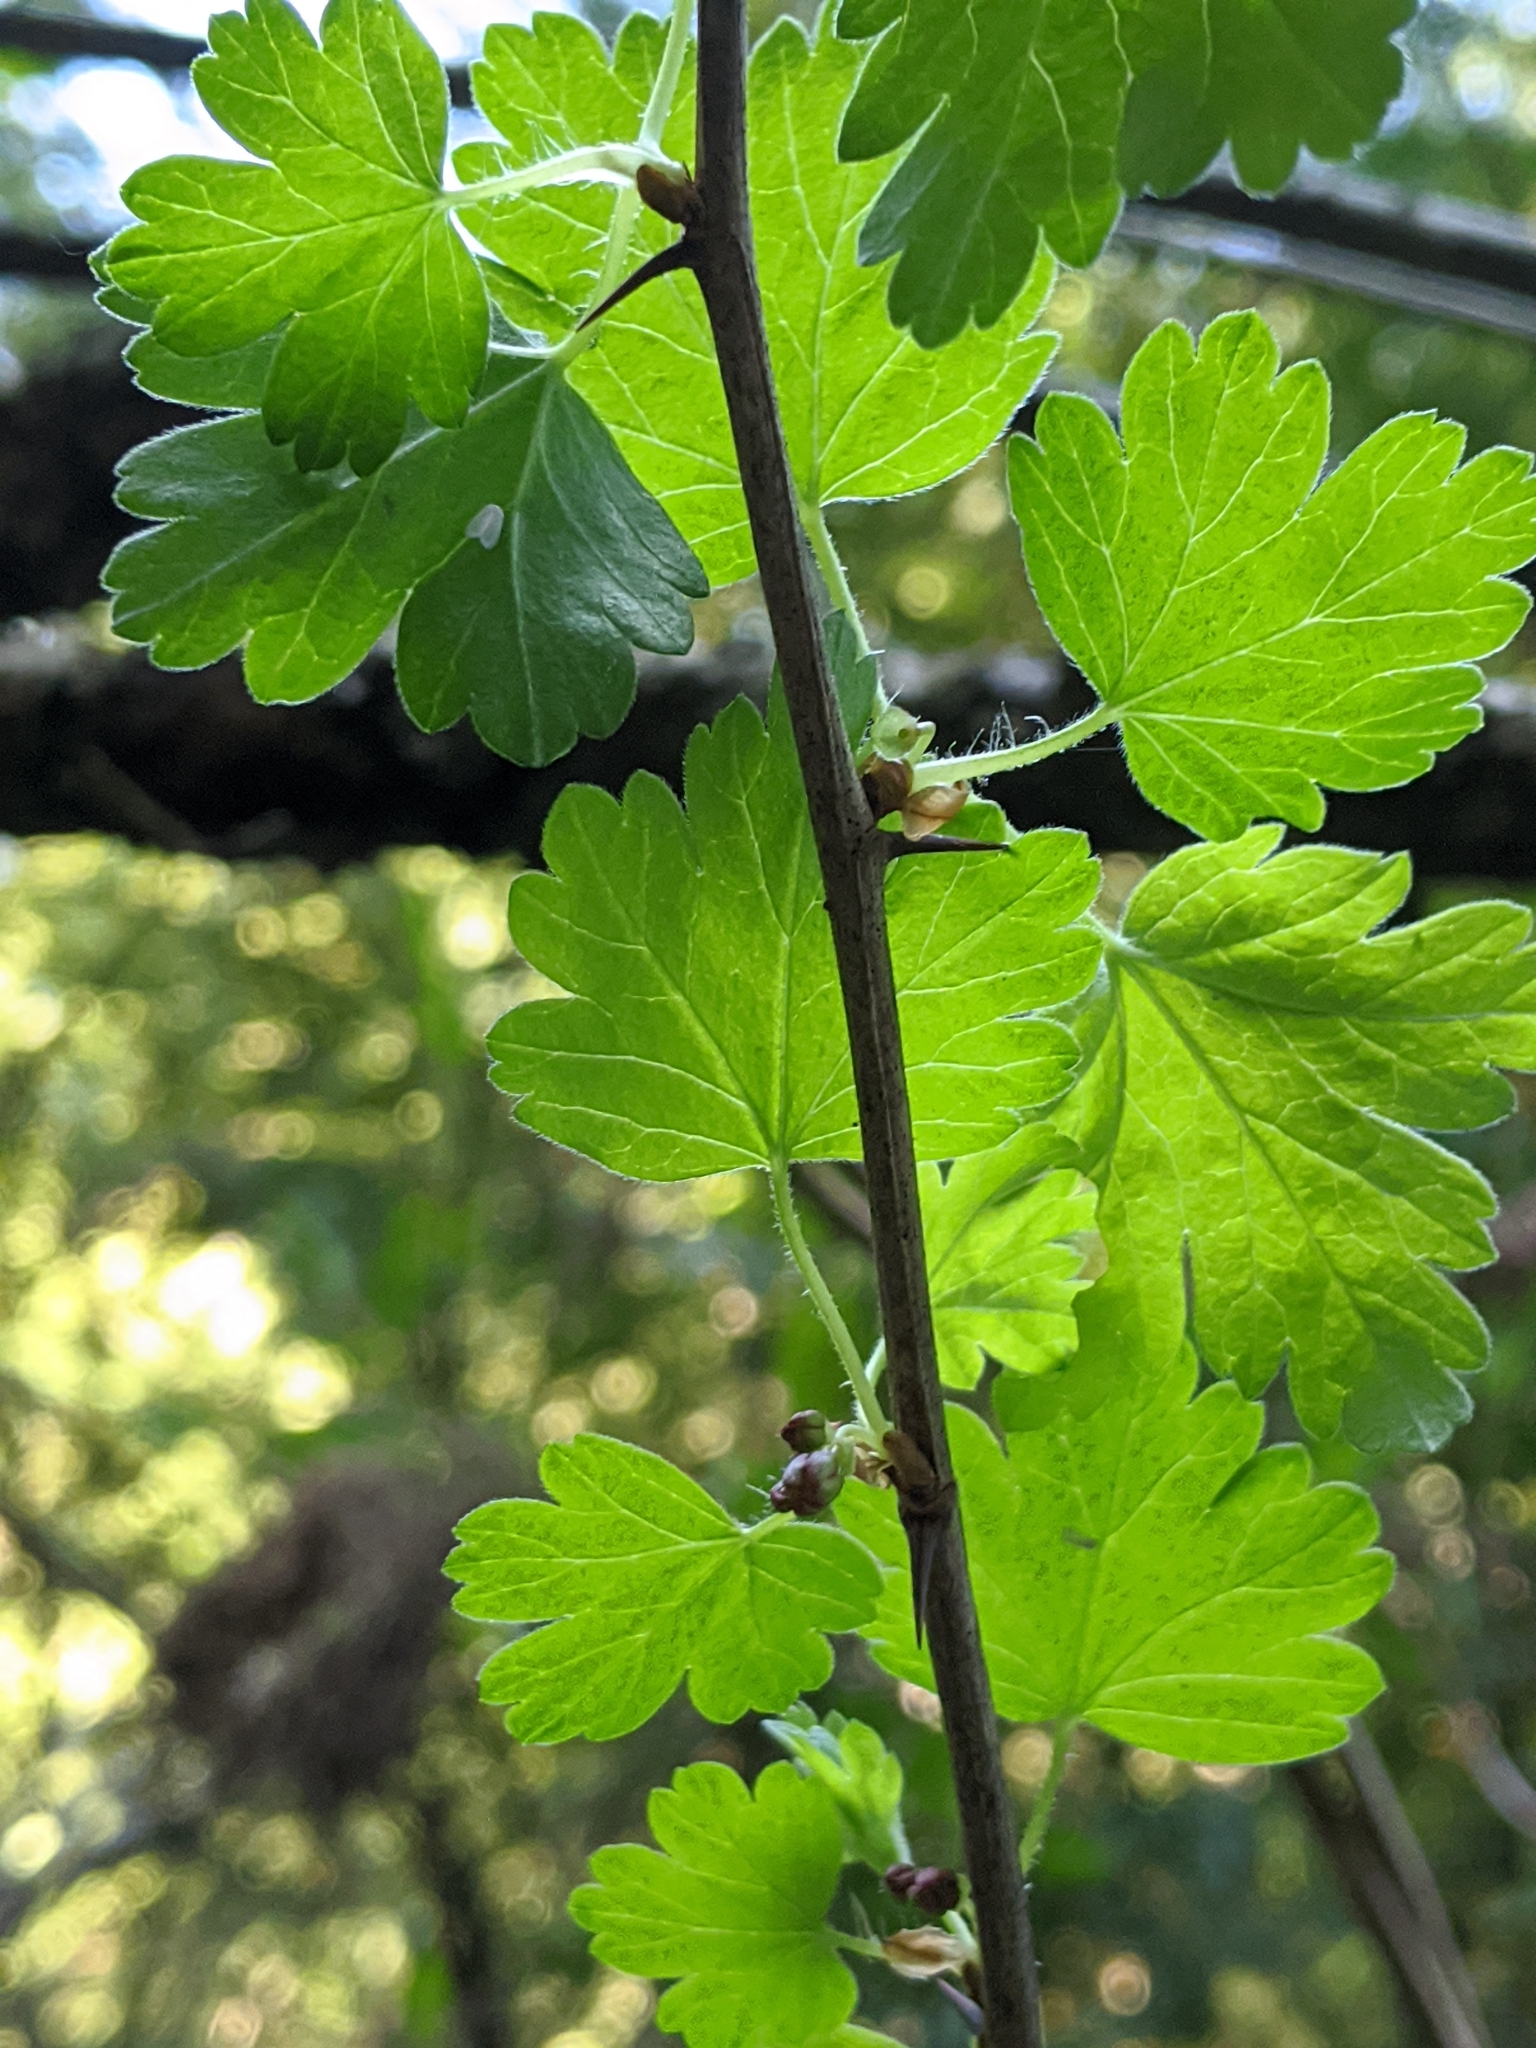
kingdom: Plantae
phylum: Tracheophyta
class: Magnoliopsida
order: Saxifragales
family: Grossulariaceae
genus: Ribes
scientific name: Ribes divaricatum
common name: Wild black gooseberry
